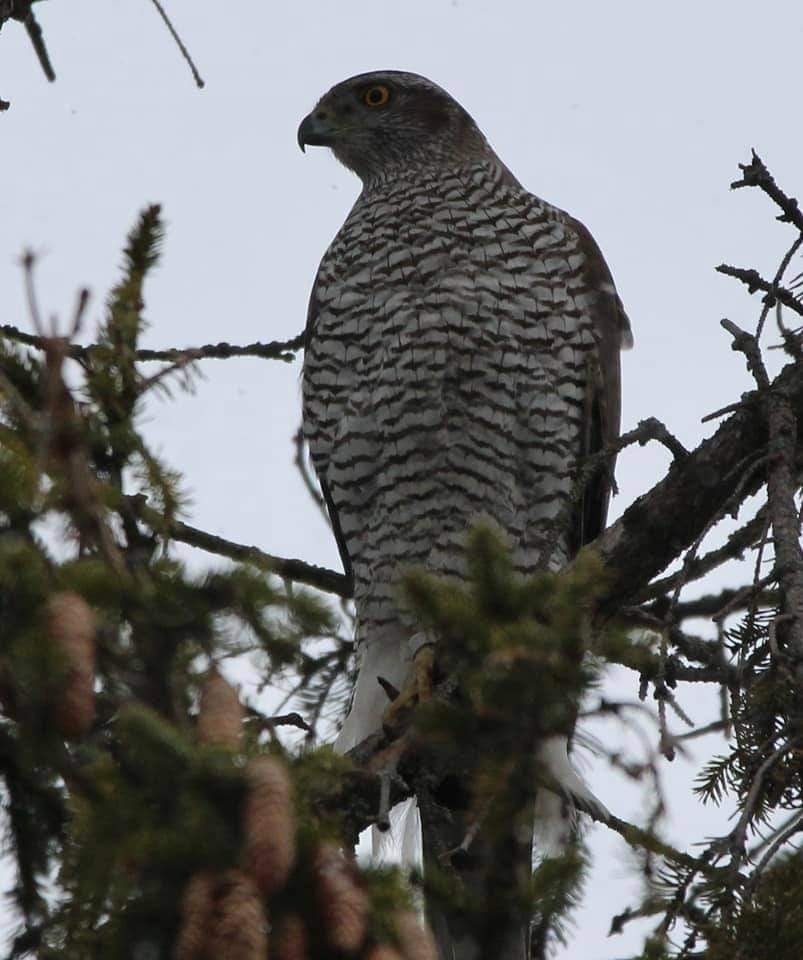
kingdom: Animalia
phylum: Chordata
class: Aves
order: Accipitriformes
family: Accipitridae
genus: Accipiter
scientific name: Accipiter gentilis
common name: Northern goshawk
